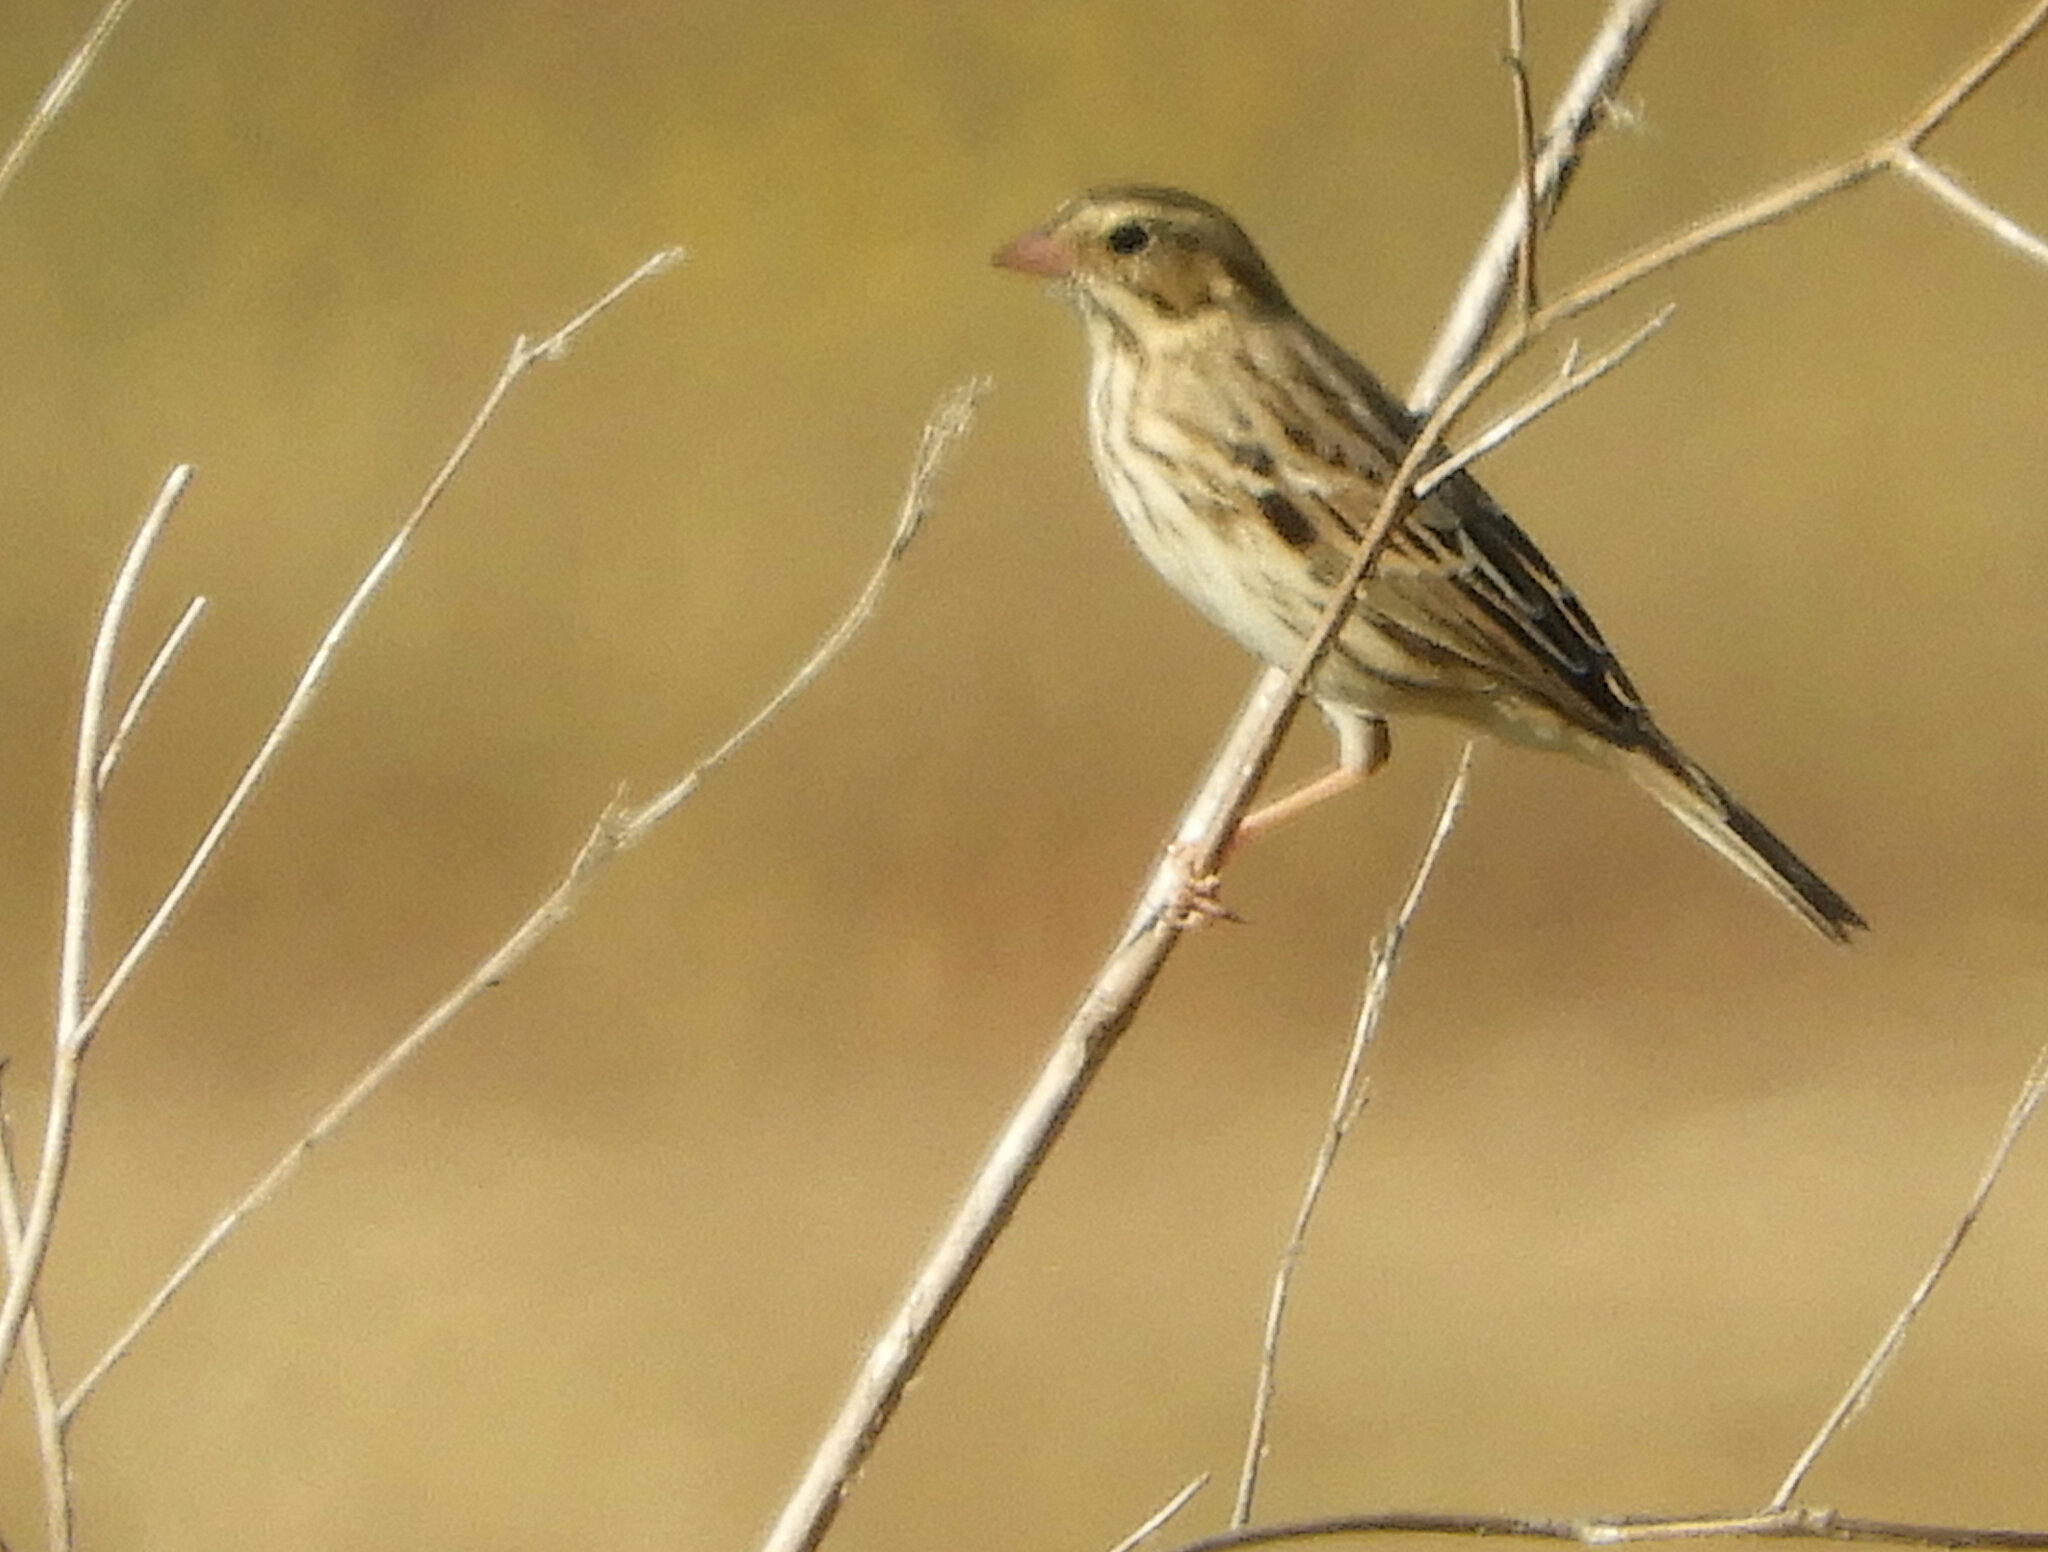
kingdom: Animalia
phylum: Chordata
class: Aves
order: Passeriformes
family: Passerellidae
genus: Passerculus
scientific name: Passerculus sandwichensis
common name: Savannah sparrow
